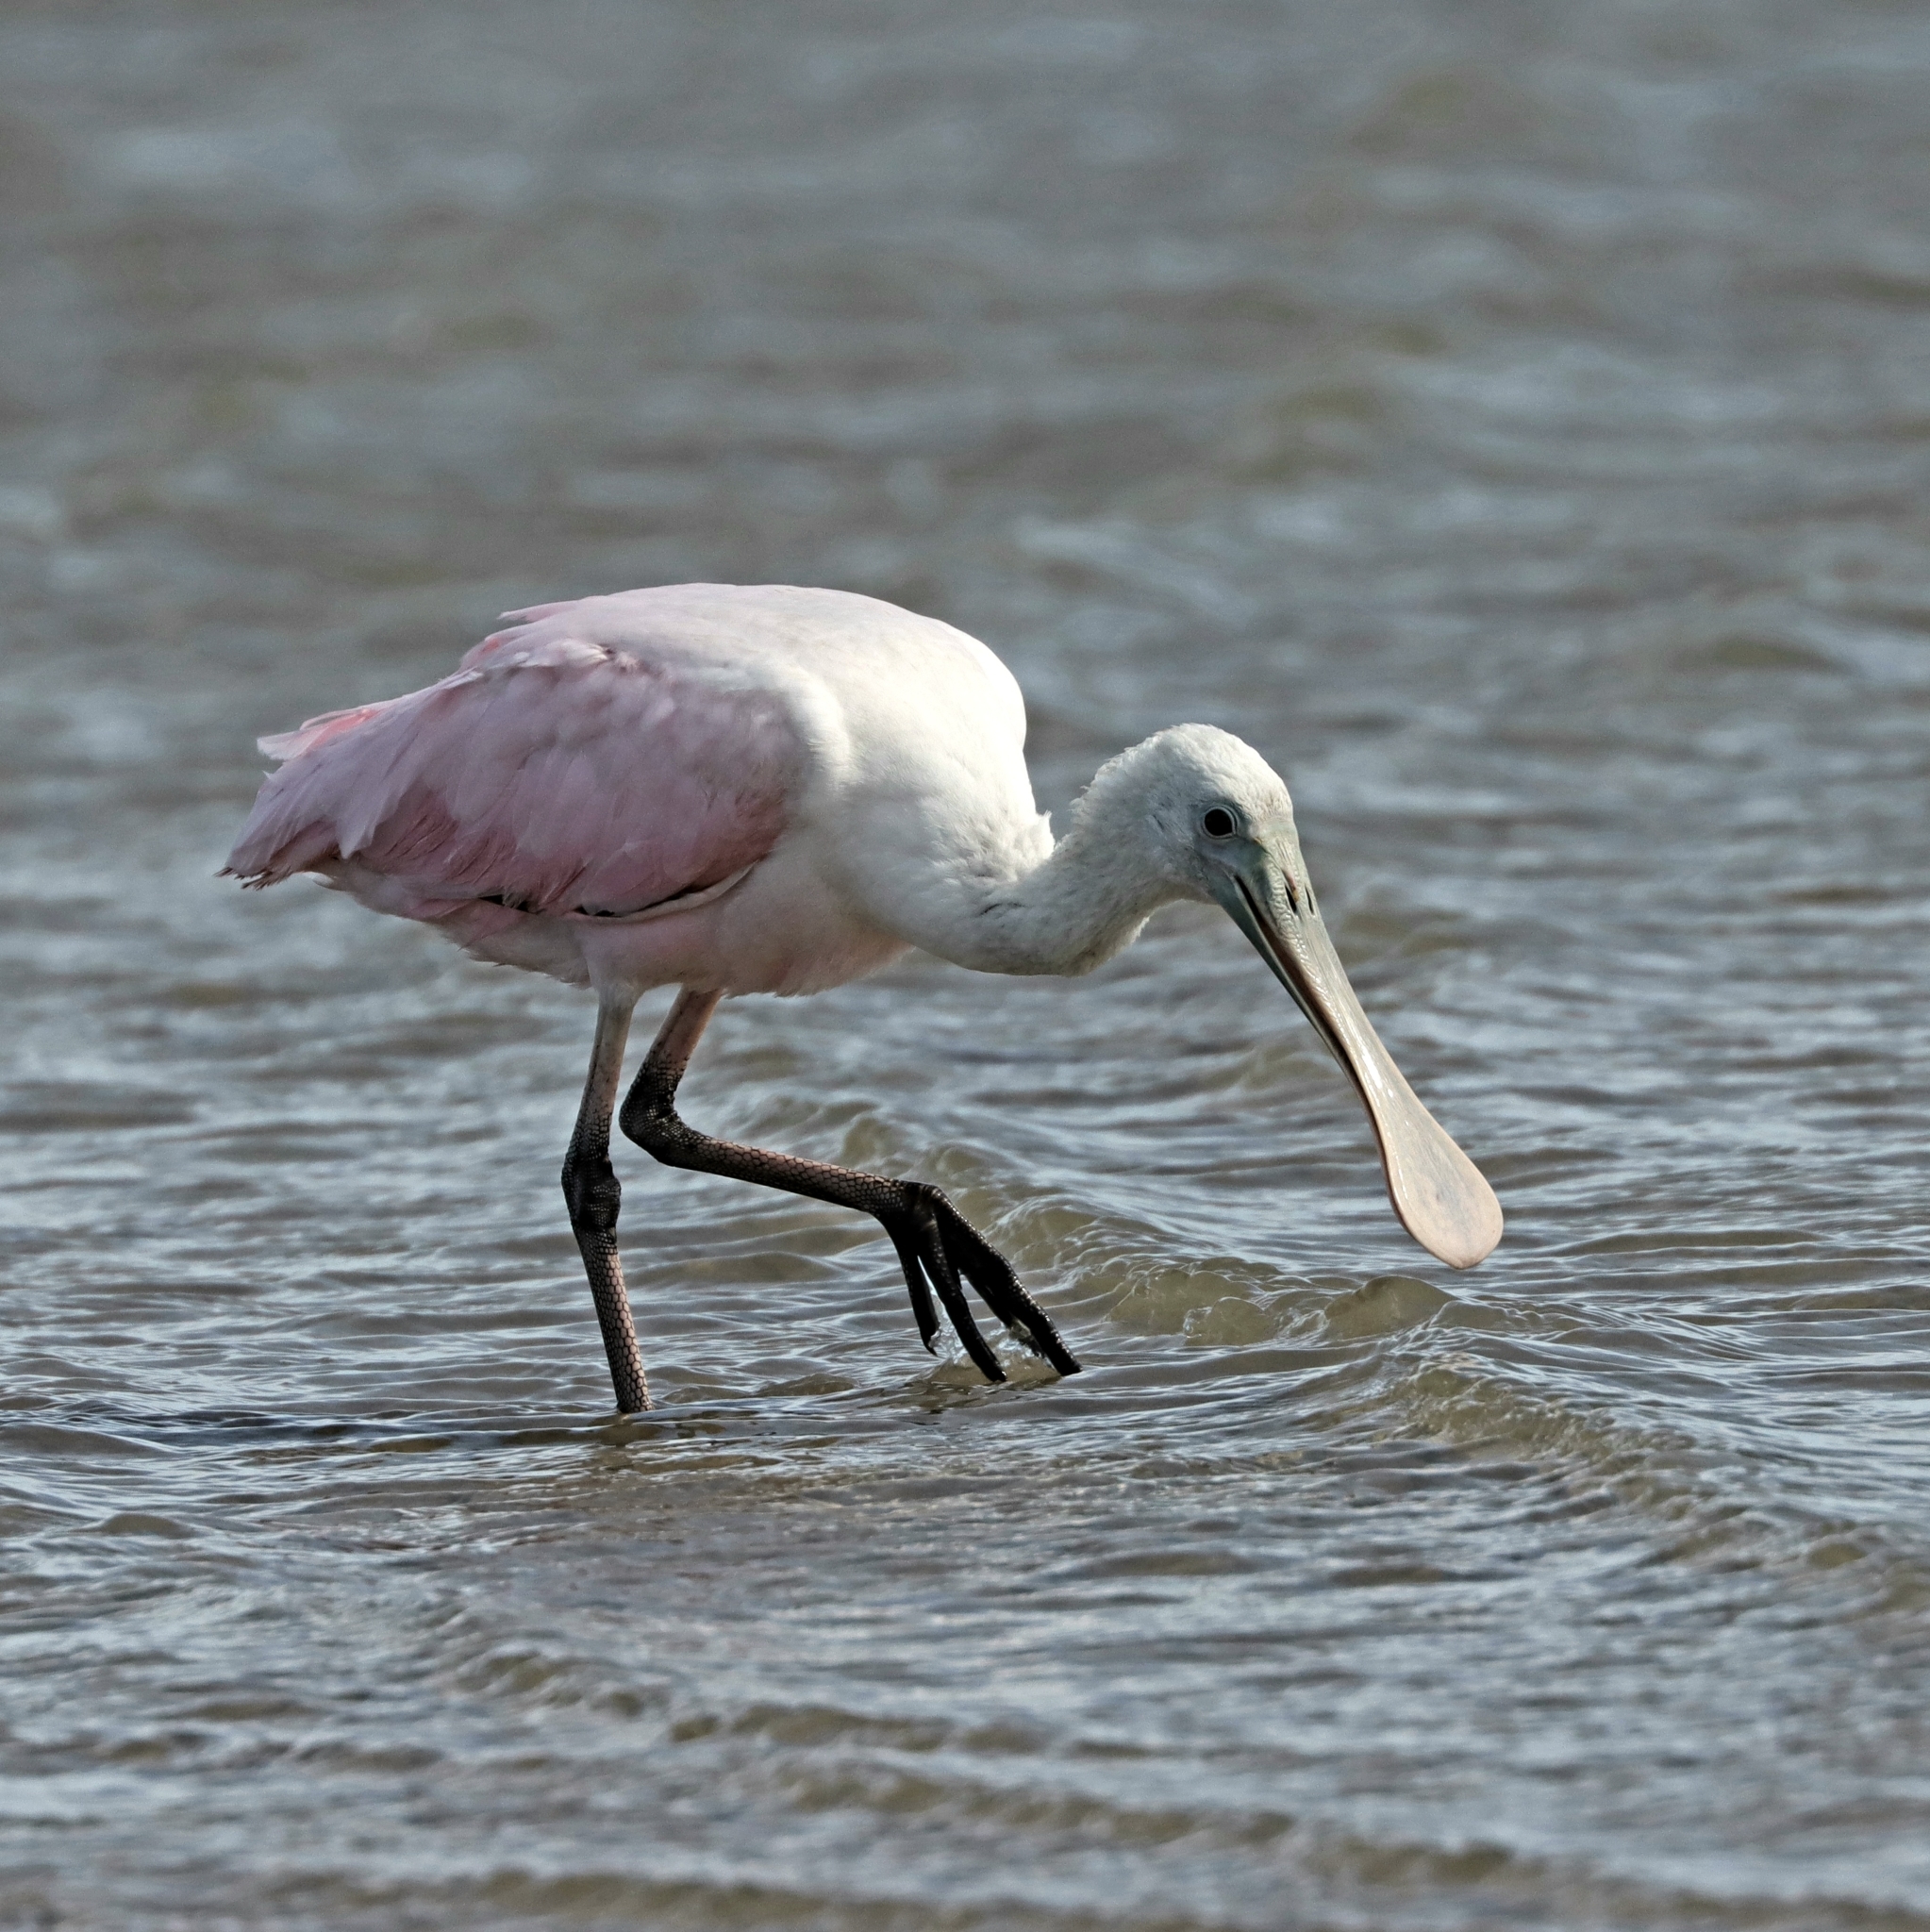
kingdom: Animalia
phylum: Chordata
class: Aves
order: Pelecaniformes
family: Threskiornithidae
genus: Platalea
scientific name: Platalea ajaja
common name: Roseate spoonbill
